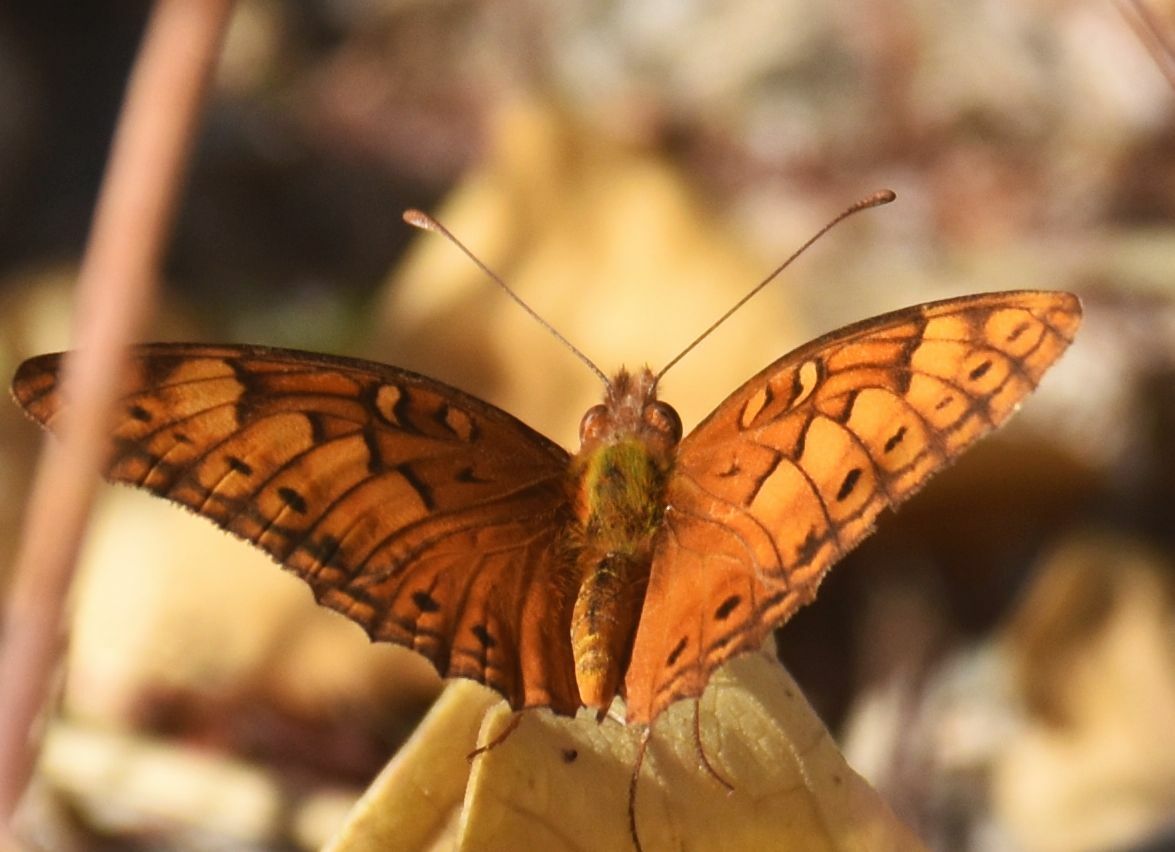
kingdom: Animalia
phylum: Arthropoda
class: Insecta
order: Lepidoptera
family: Nymphalidae
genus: Euptoieta
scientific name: Euptoieta hegesia
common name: Mexican fritillary
